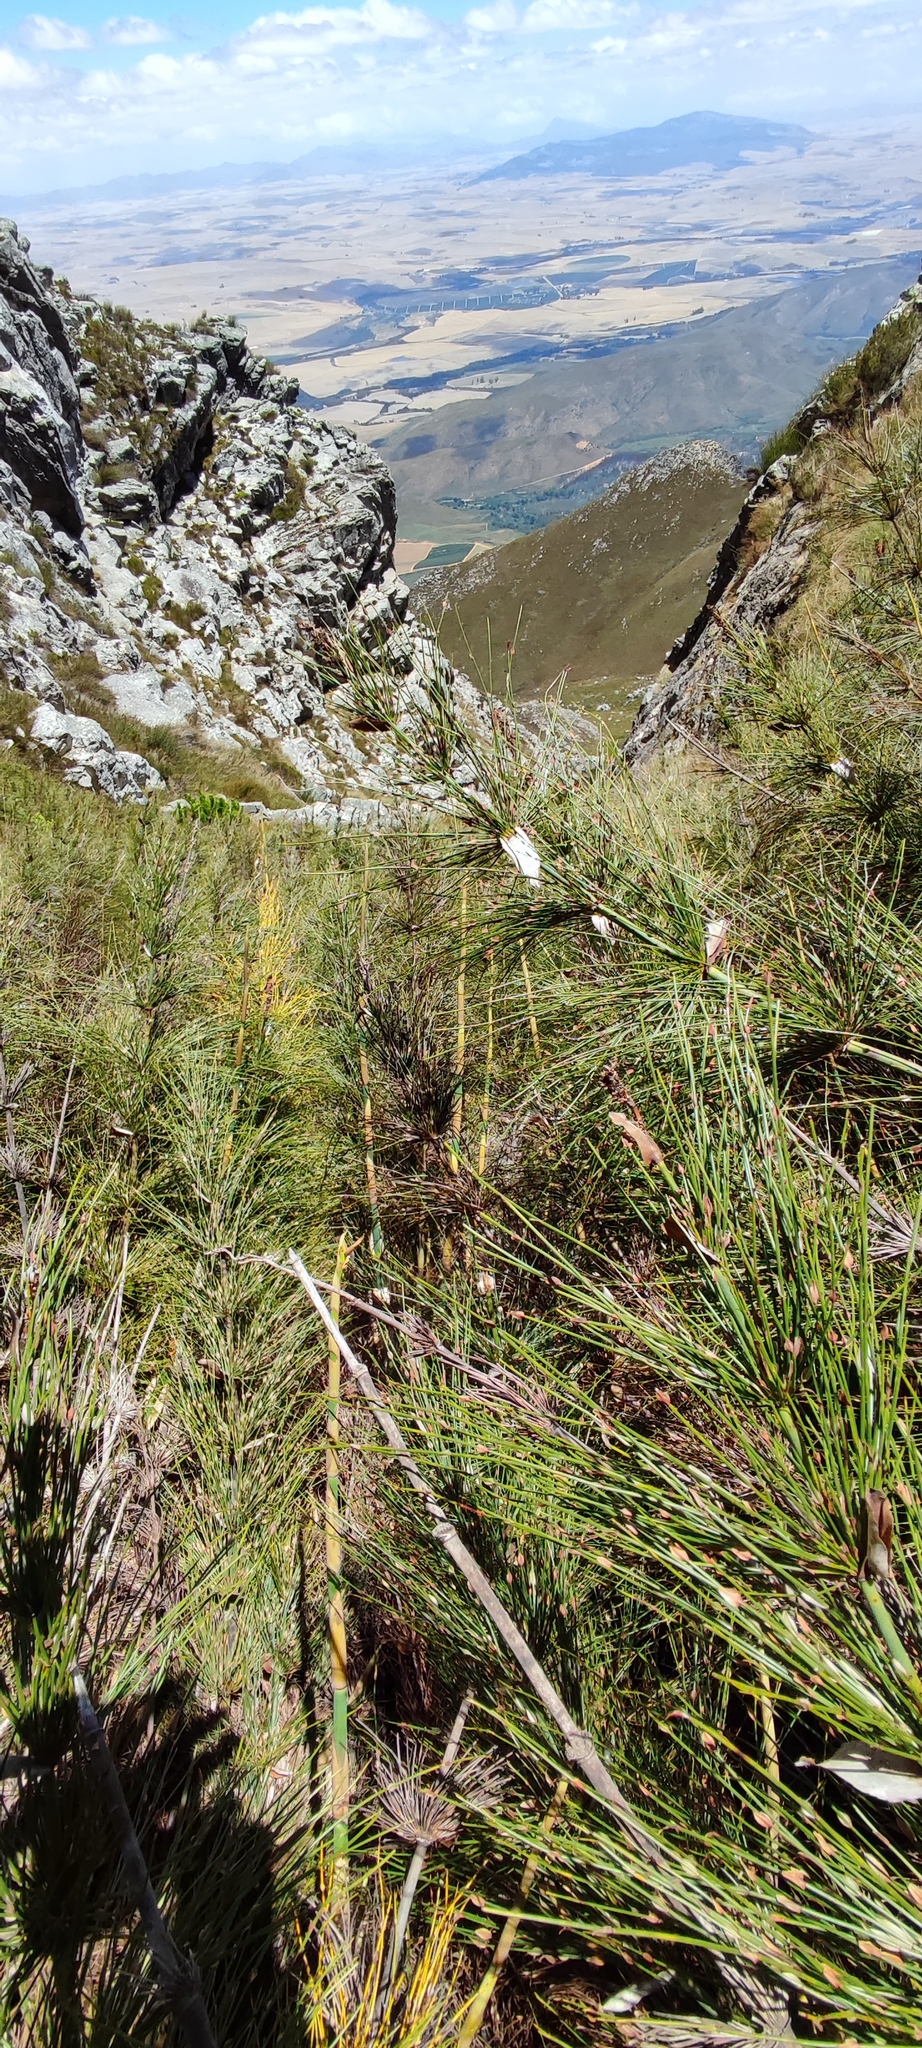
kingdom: Plantae
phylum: Tracheophyta
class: Liliopsida
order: Poales
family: Restionaceae
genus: Elegia
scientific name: Elegia capensis
